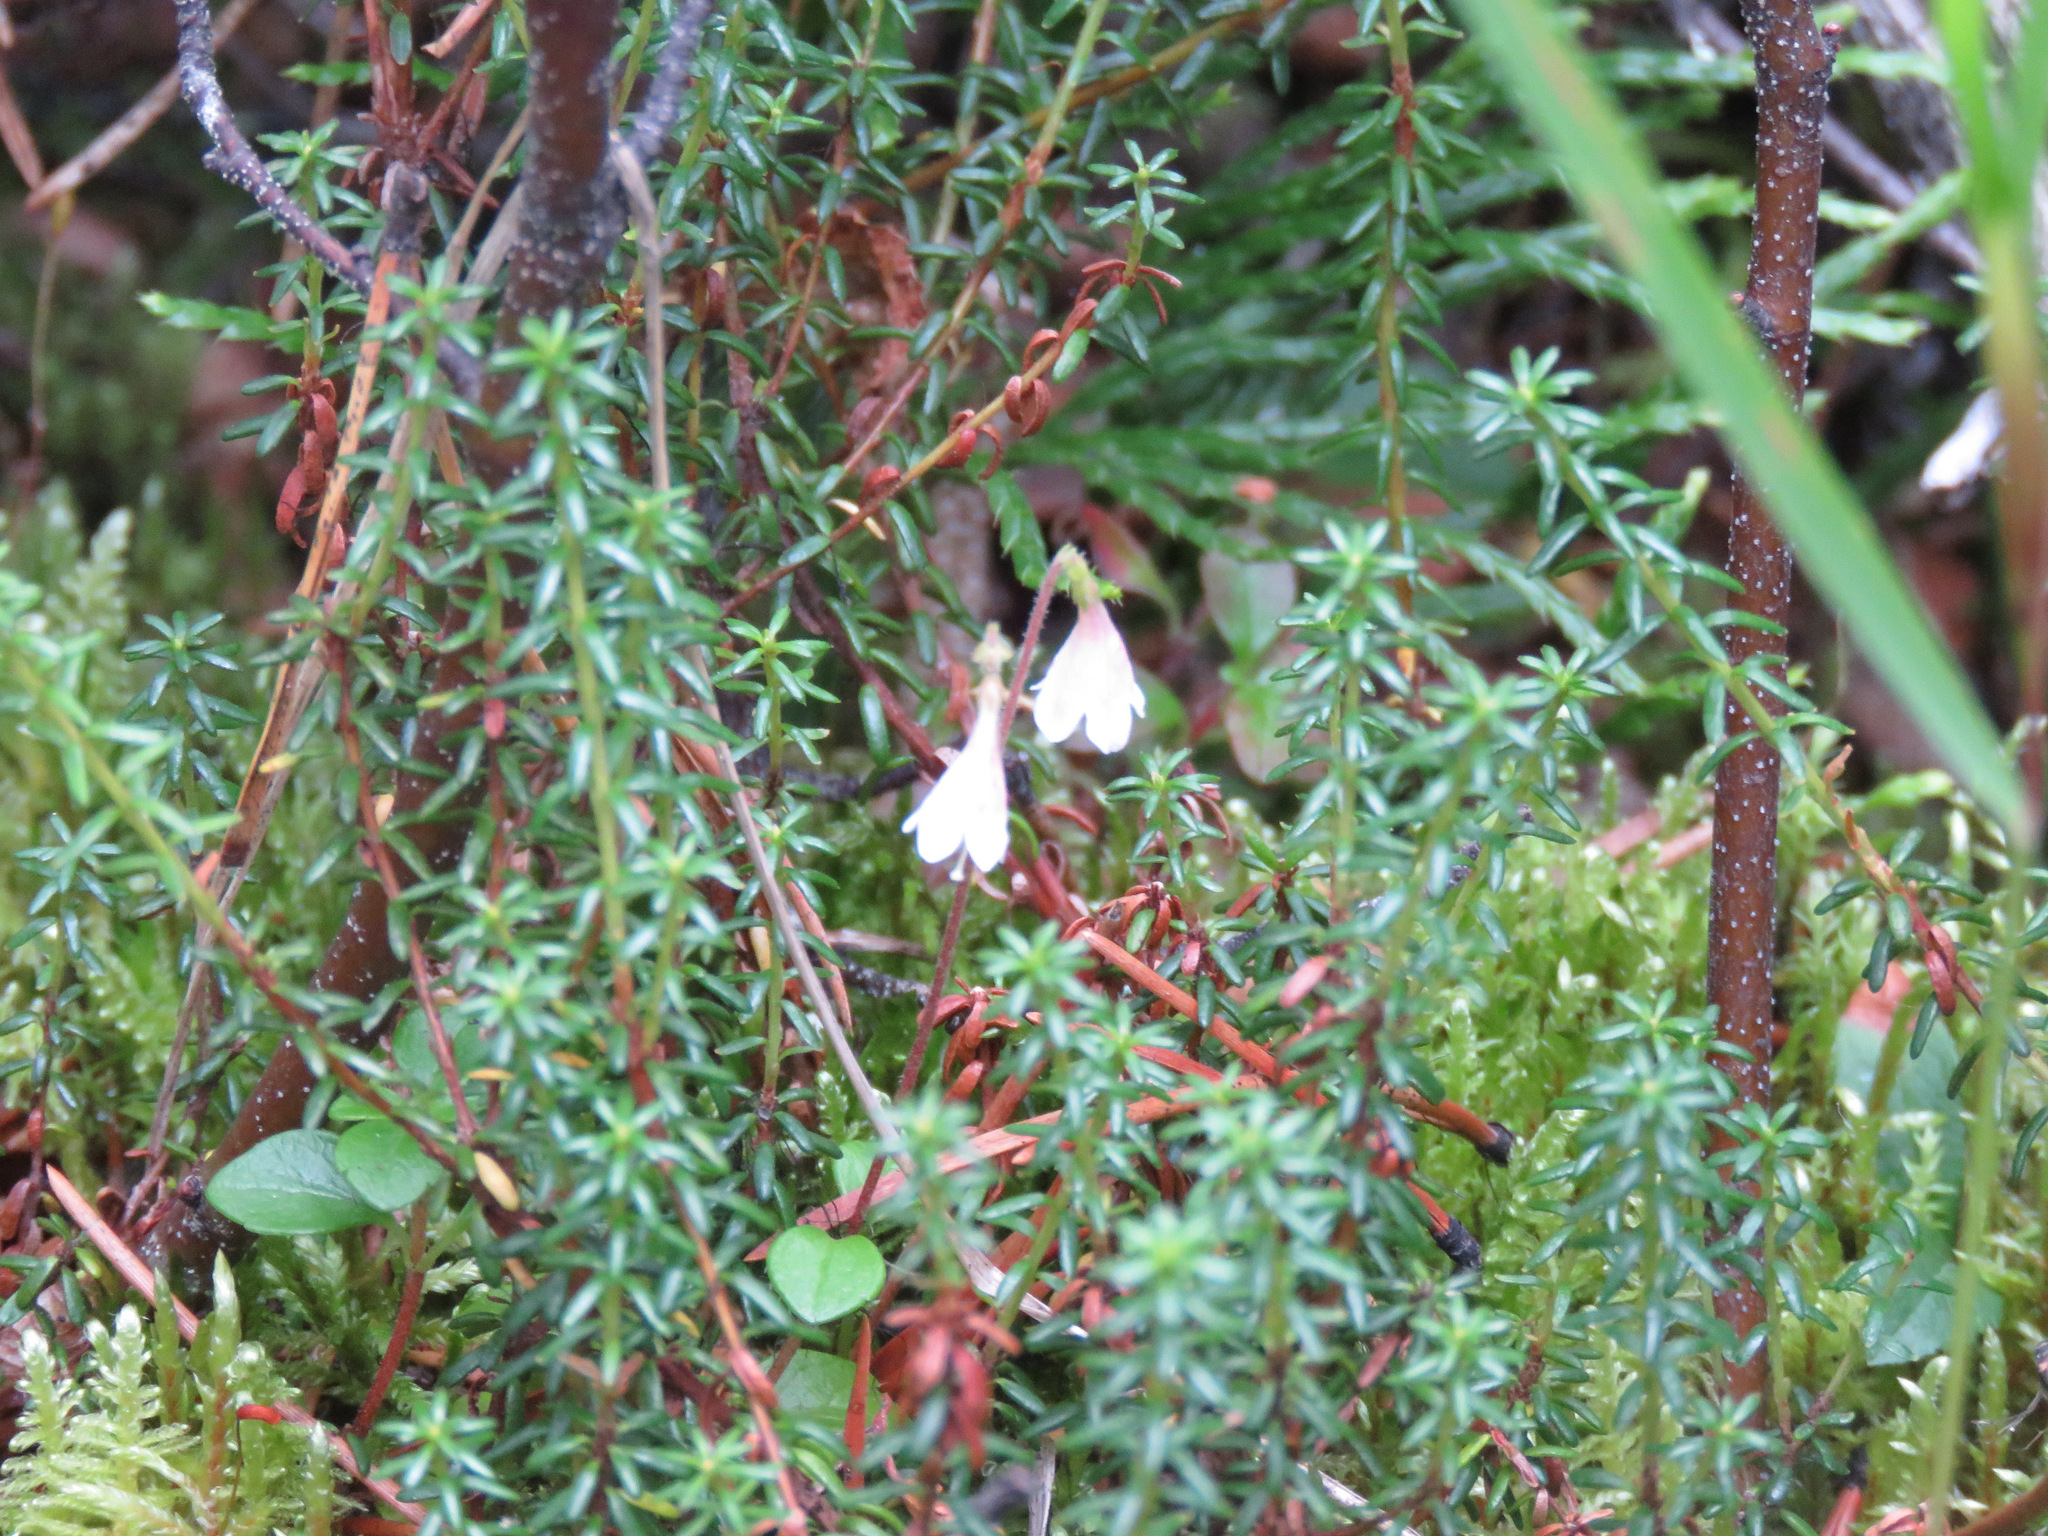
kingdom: Plantae
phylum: Tracheophyta
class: Magnoliopsida
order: Dipsacales
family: Caprifoliaceae
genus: Linnaea
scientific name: Linnaea borealis
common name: Twinflower
